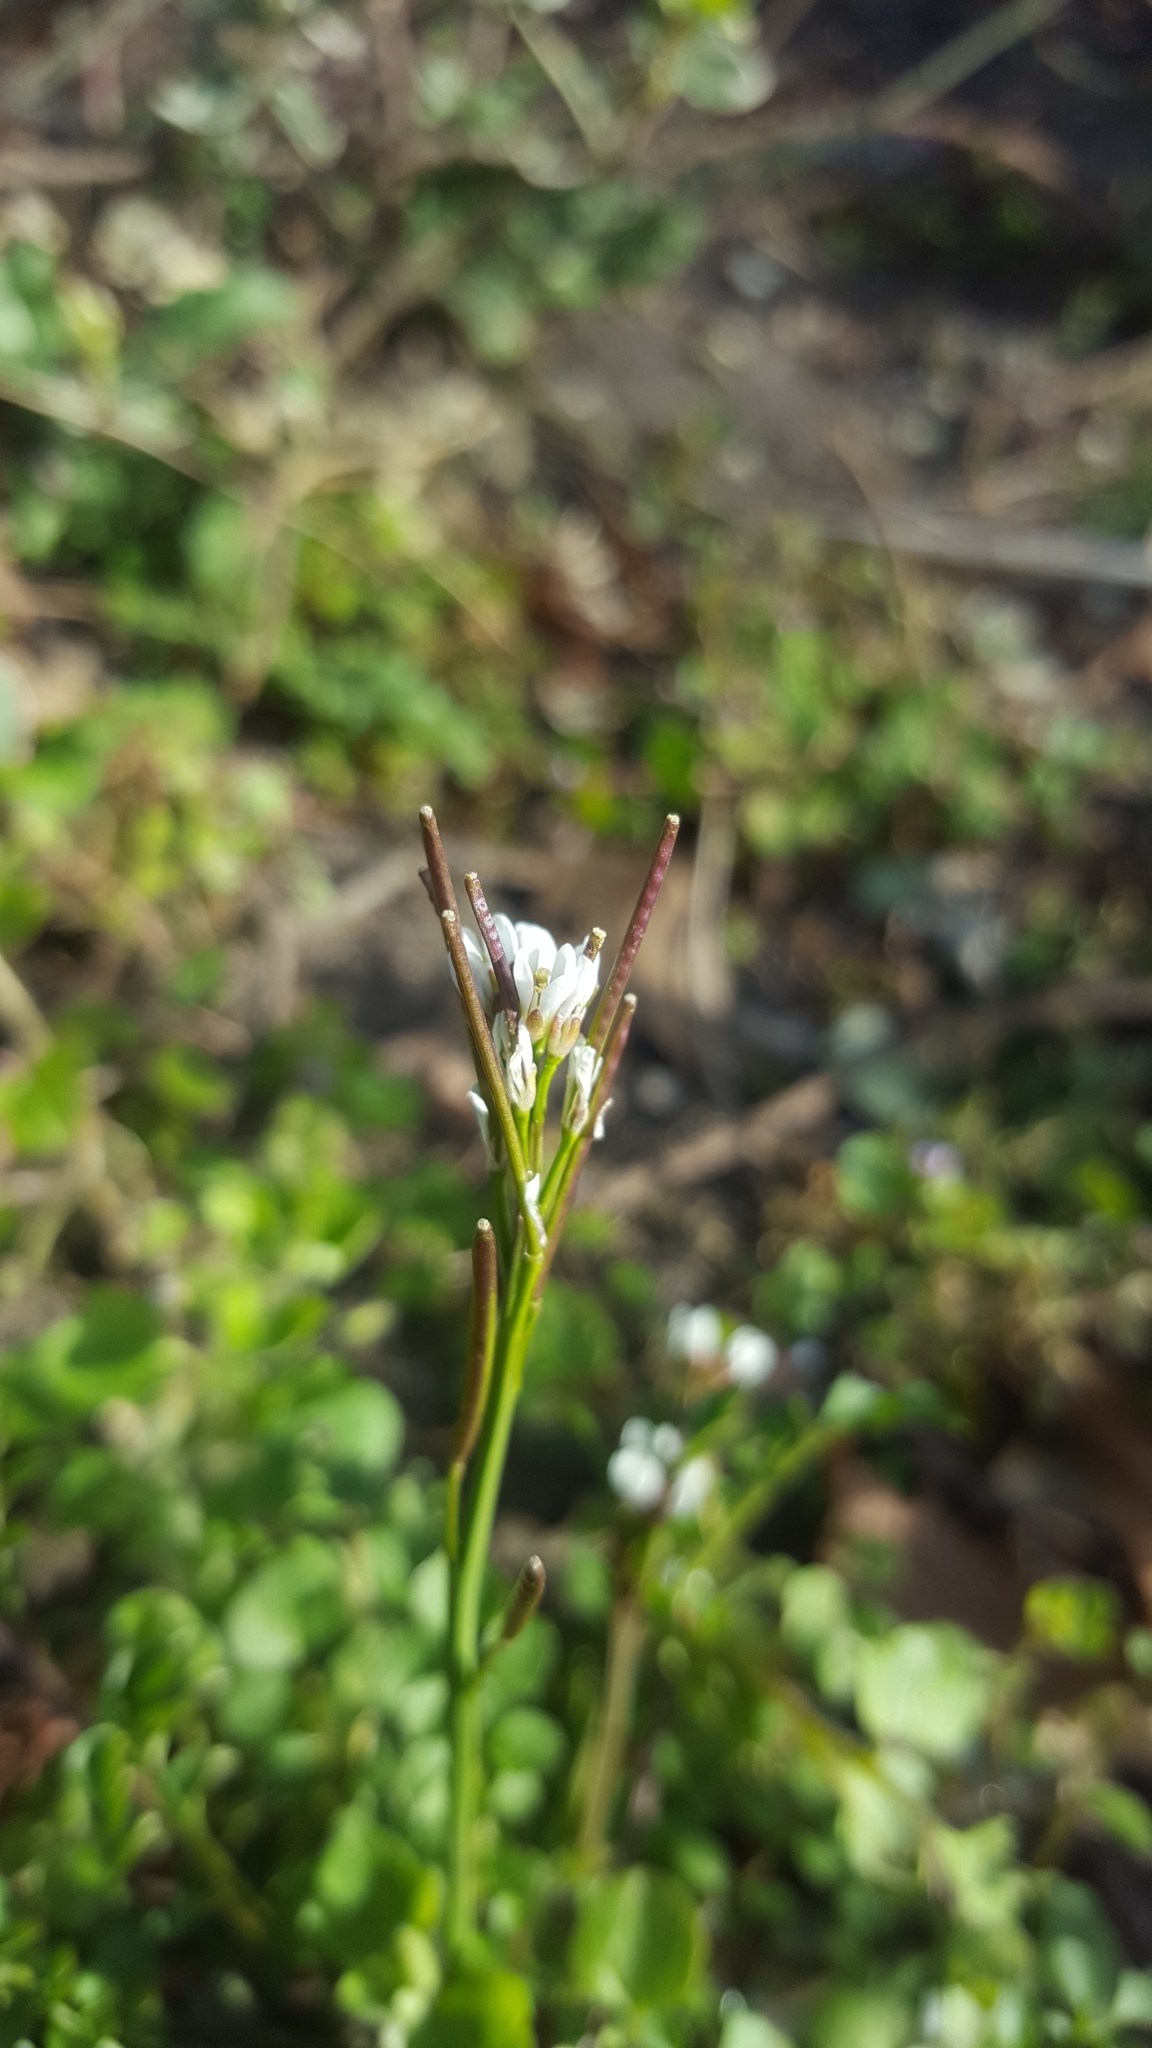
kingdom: Plantae
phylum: Tracheophyta
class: Magnoliopsida
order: Brassicales
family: Brassicaceae
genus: Cardamine
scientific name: Cardamine hirsuta
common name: Hairy bittercress
